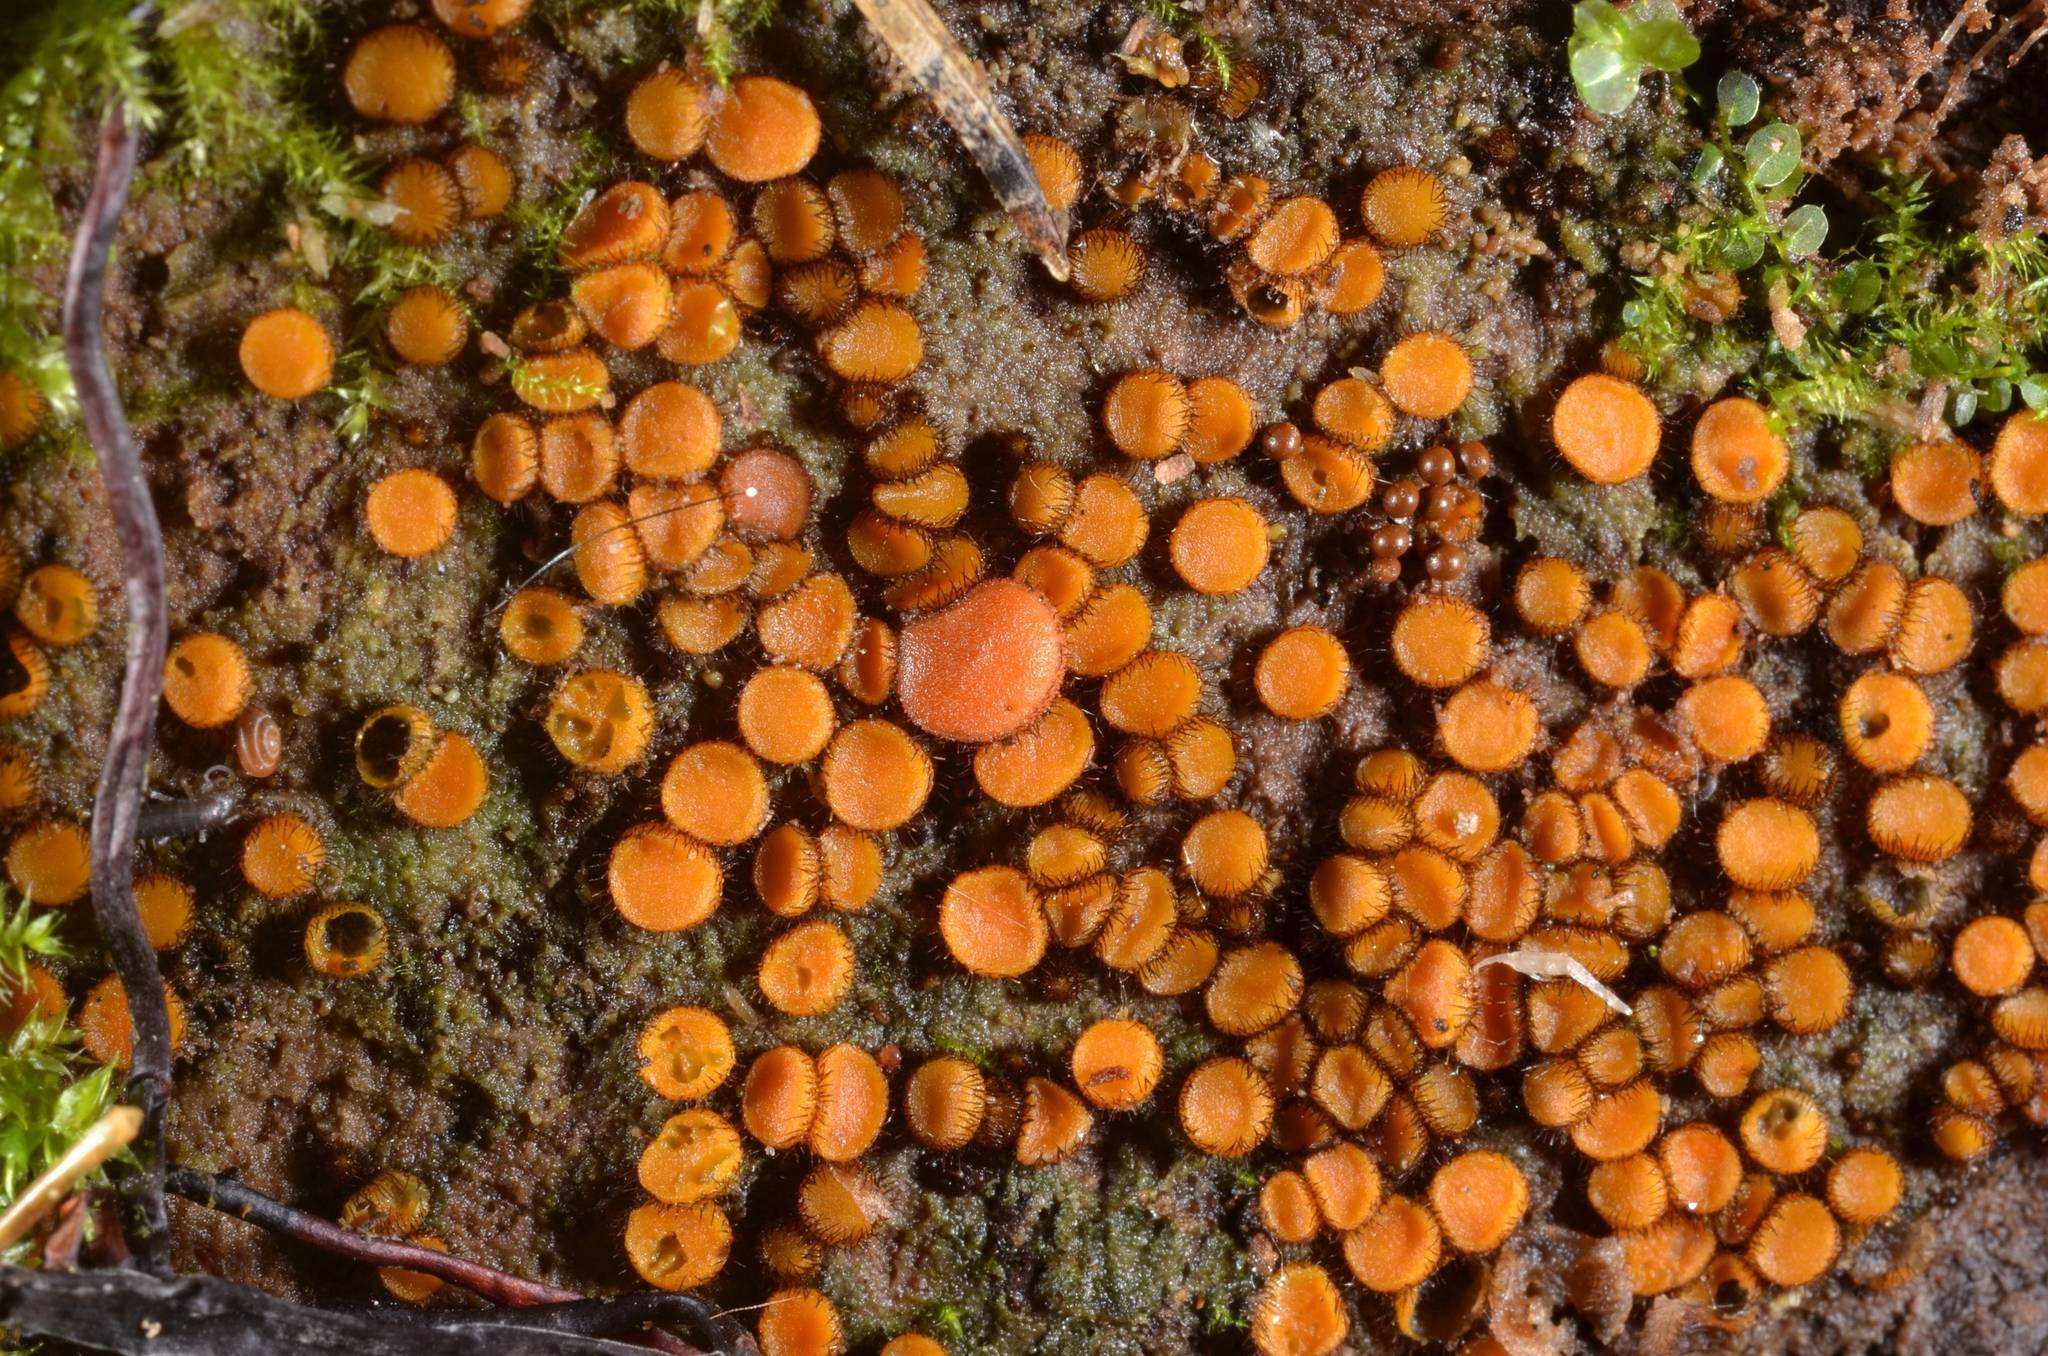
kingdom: Fungi
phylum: Ascomycota
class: Pezizomycetes
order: Pezizales
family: Pyronemataceae
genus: Scutellinia
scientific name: Scutellinia setosa
